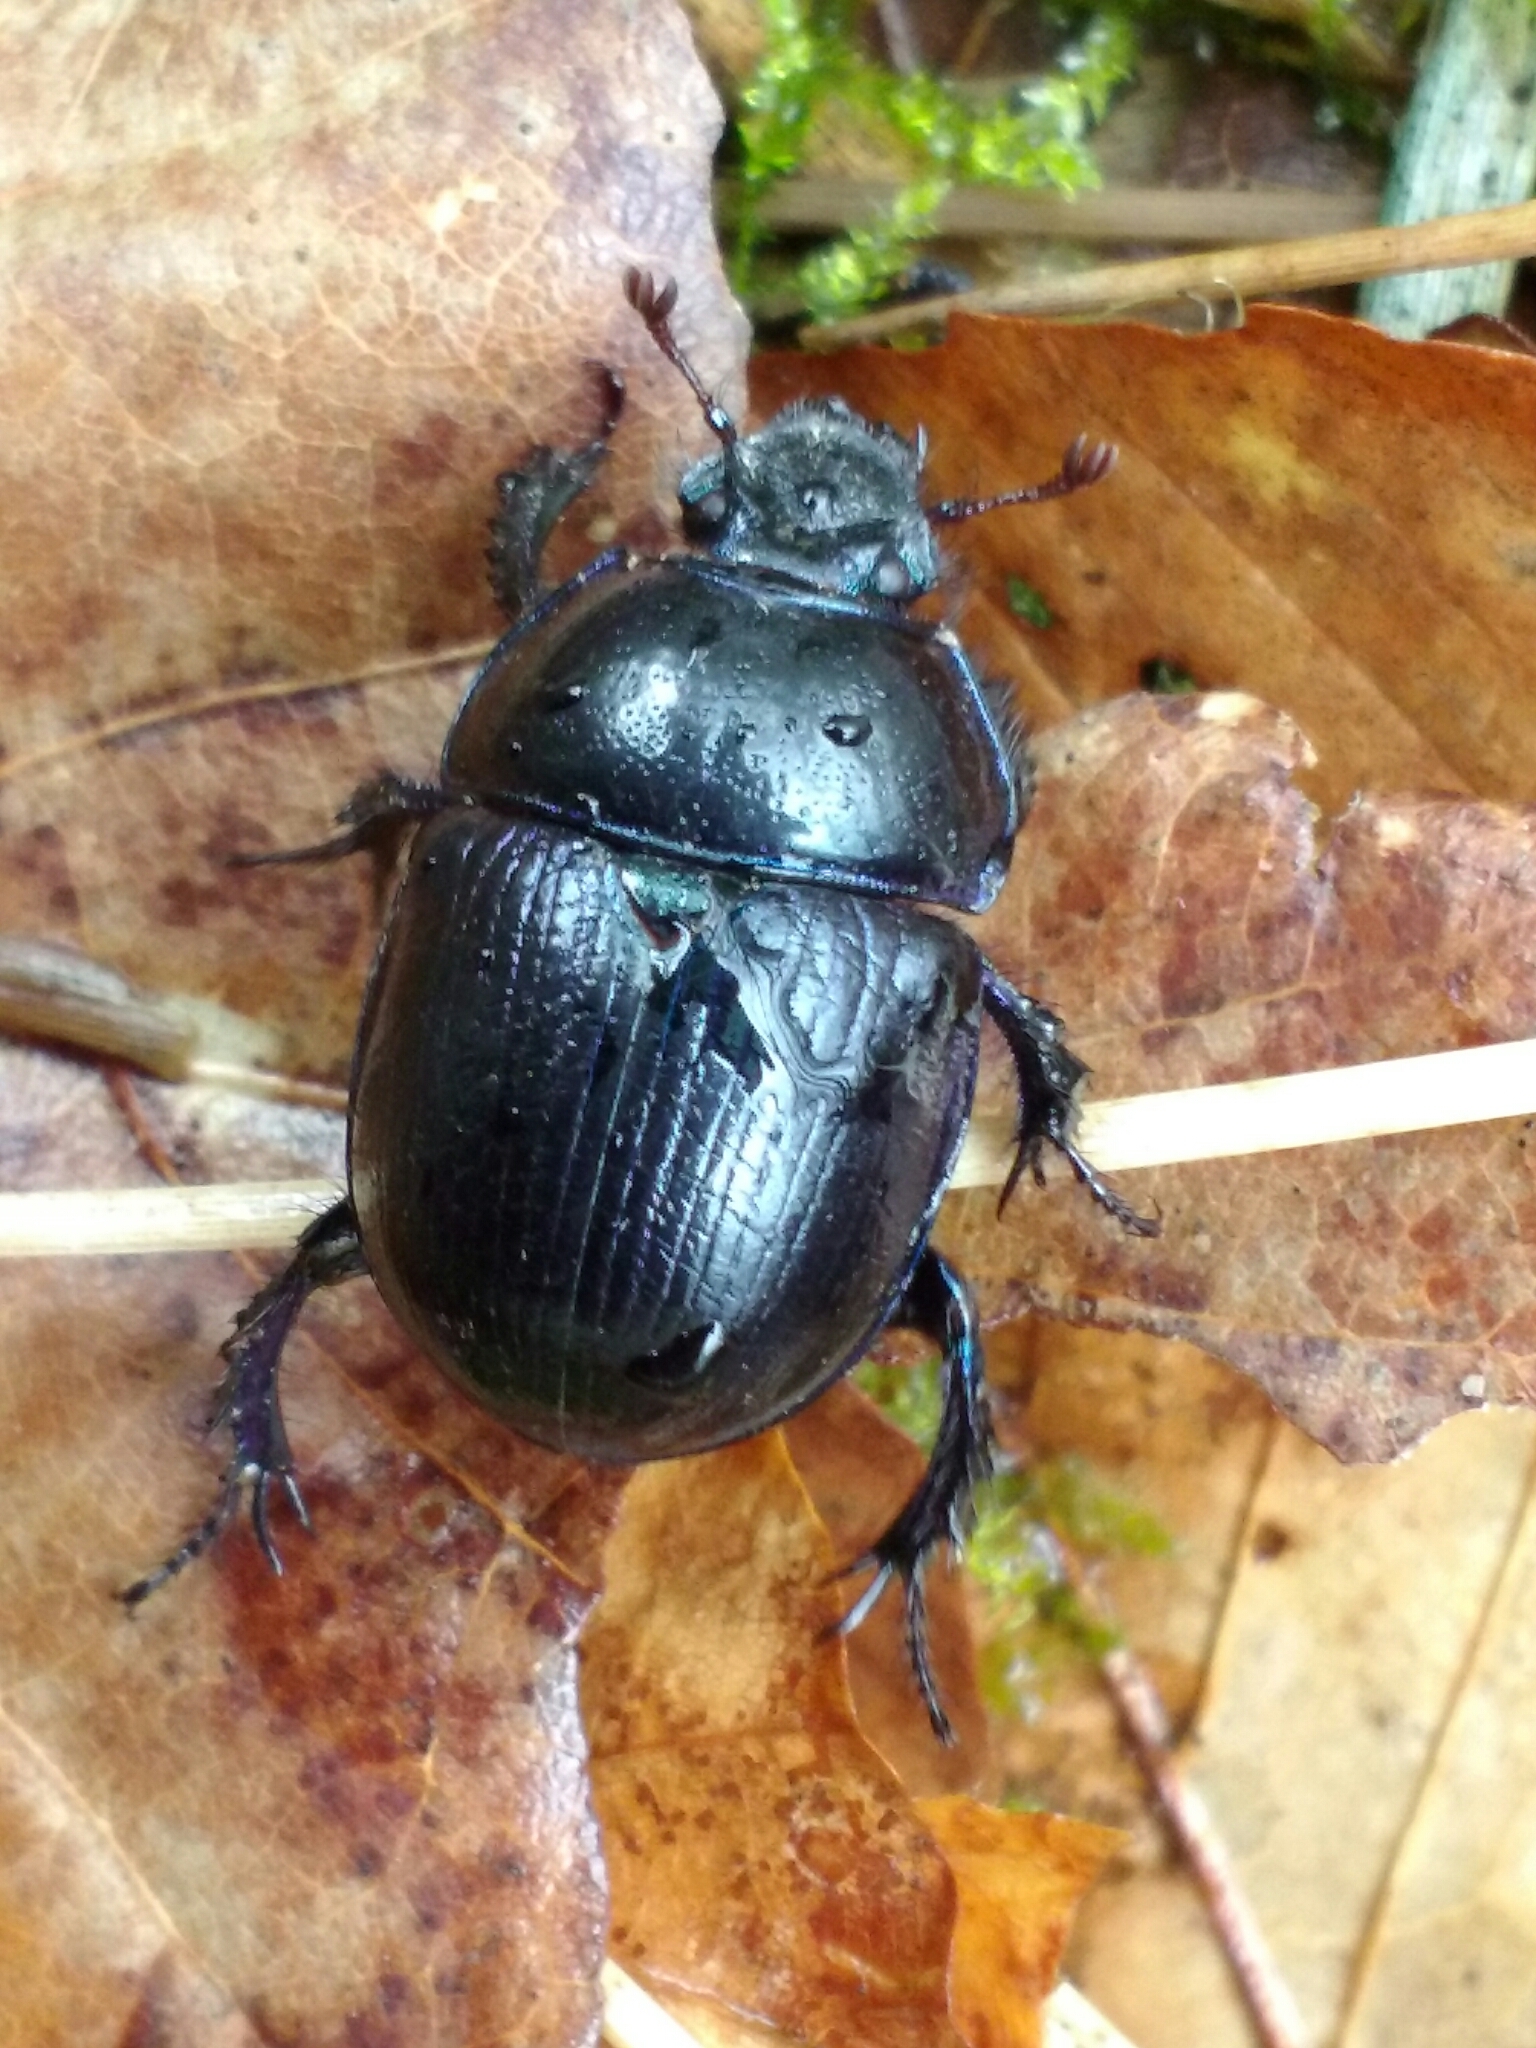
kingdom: Animalia
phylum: Arthropoda
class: Insecta
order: Coleoptera
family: Geotrupidae
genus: Anoplotrupes
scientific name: Anoplotrupes stercorosus
